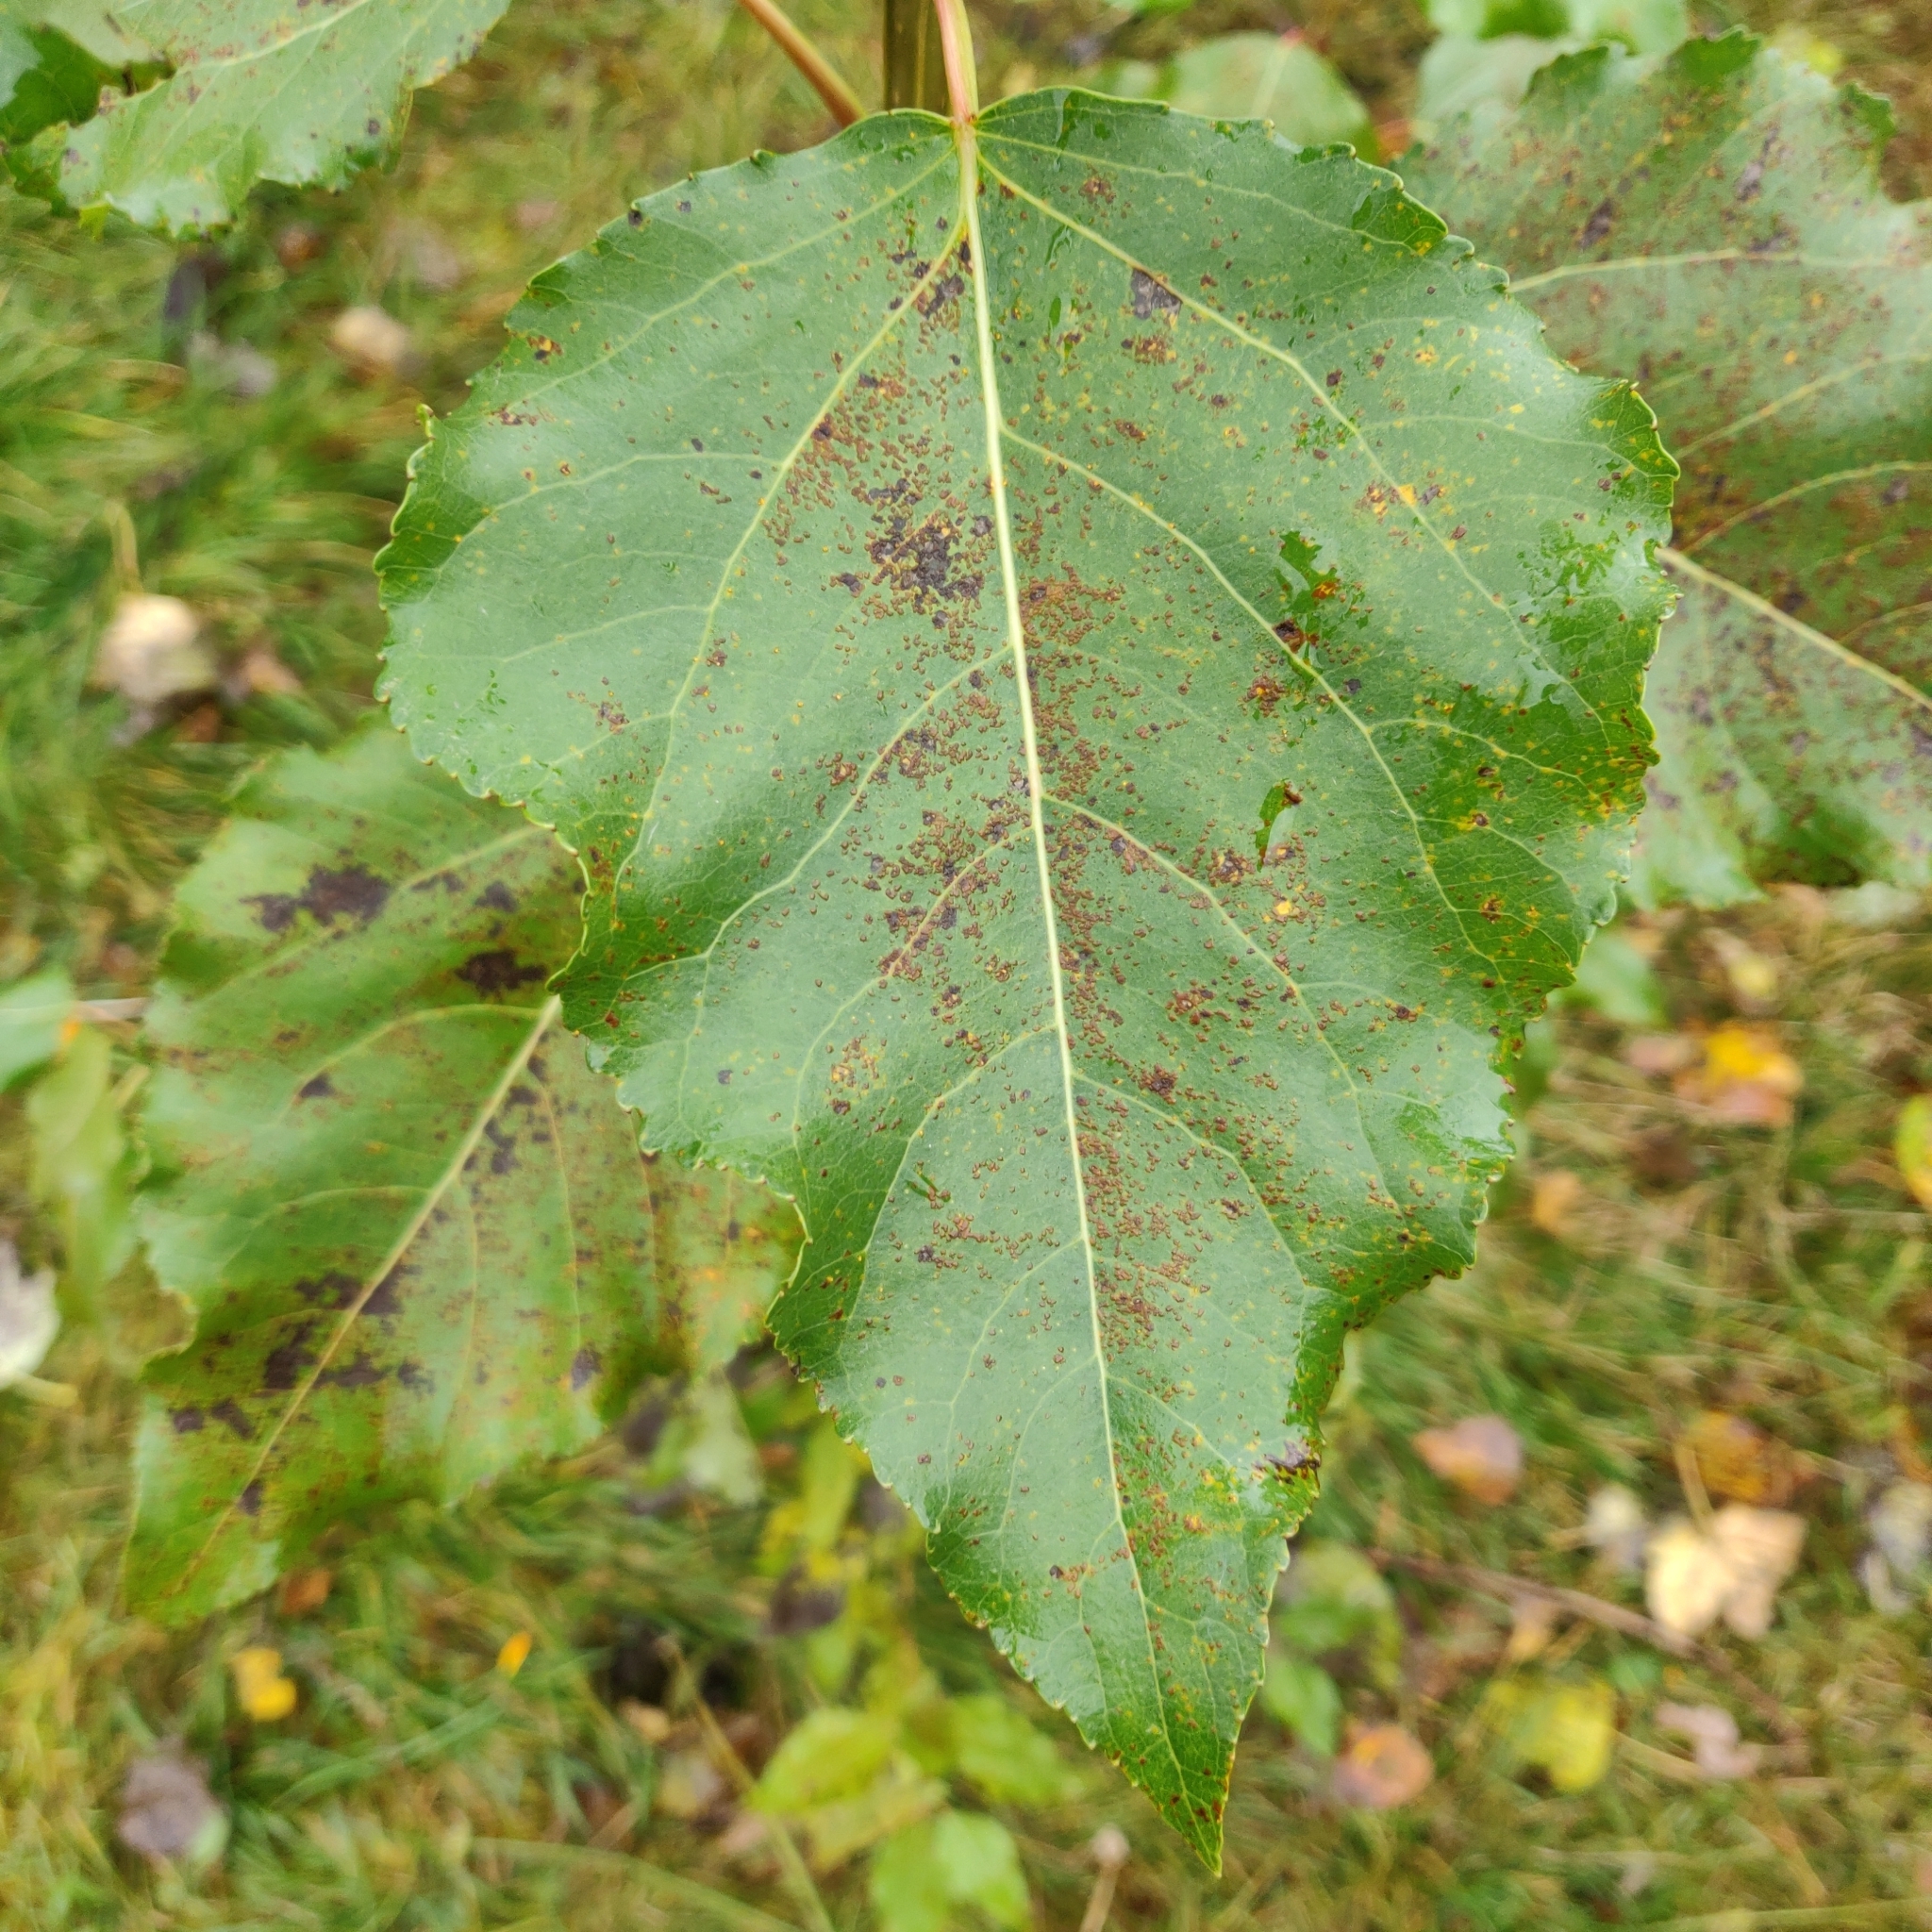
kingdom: Plantae
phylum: Tracheophyta
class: Magnoliopsida
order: Malpighiales
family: Salicaceae
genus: Populus
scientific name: Populus nigra
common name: Black poplar
